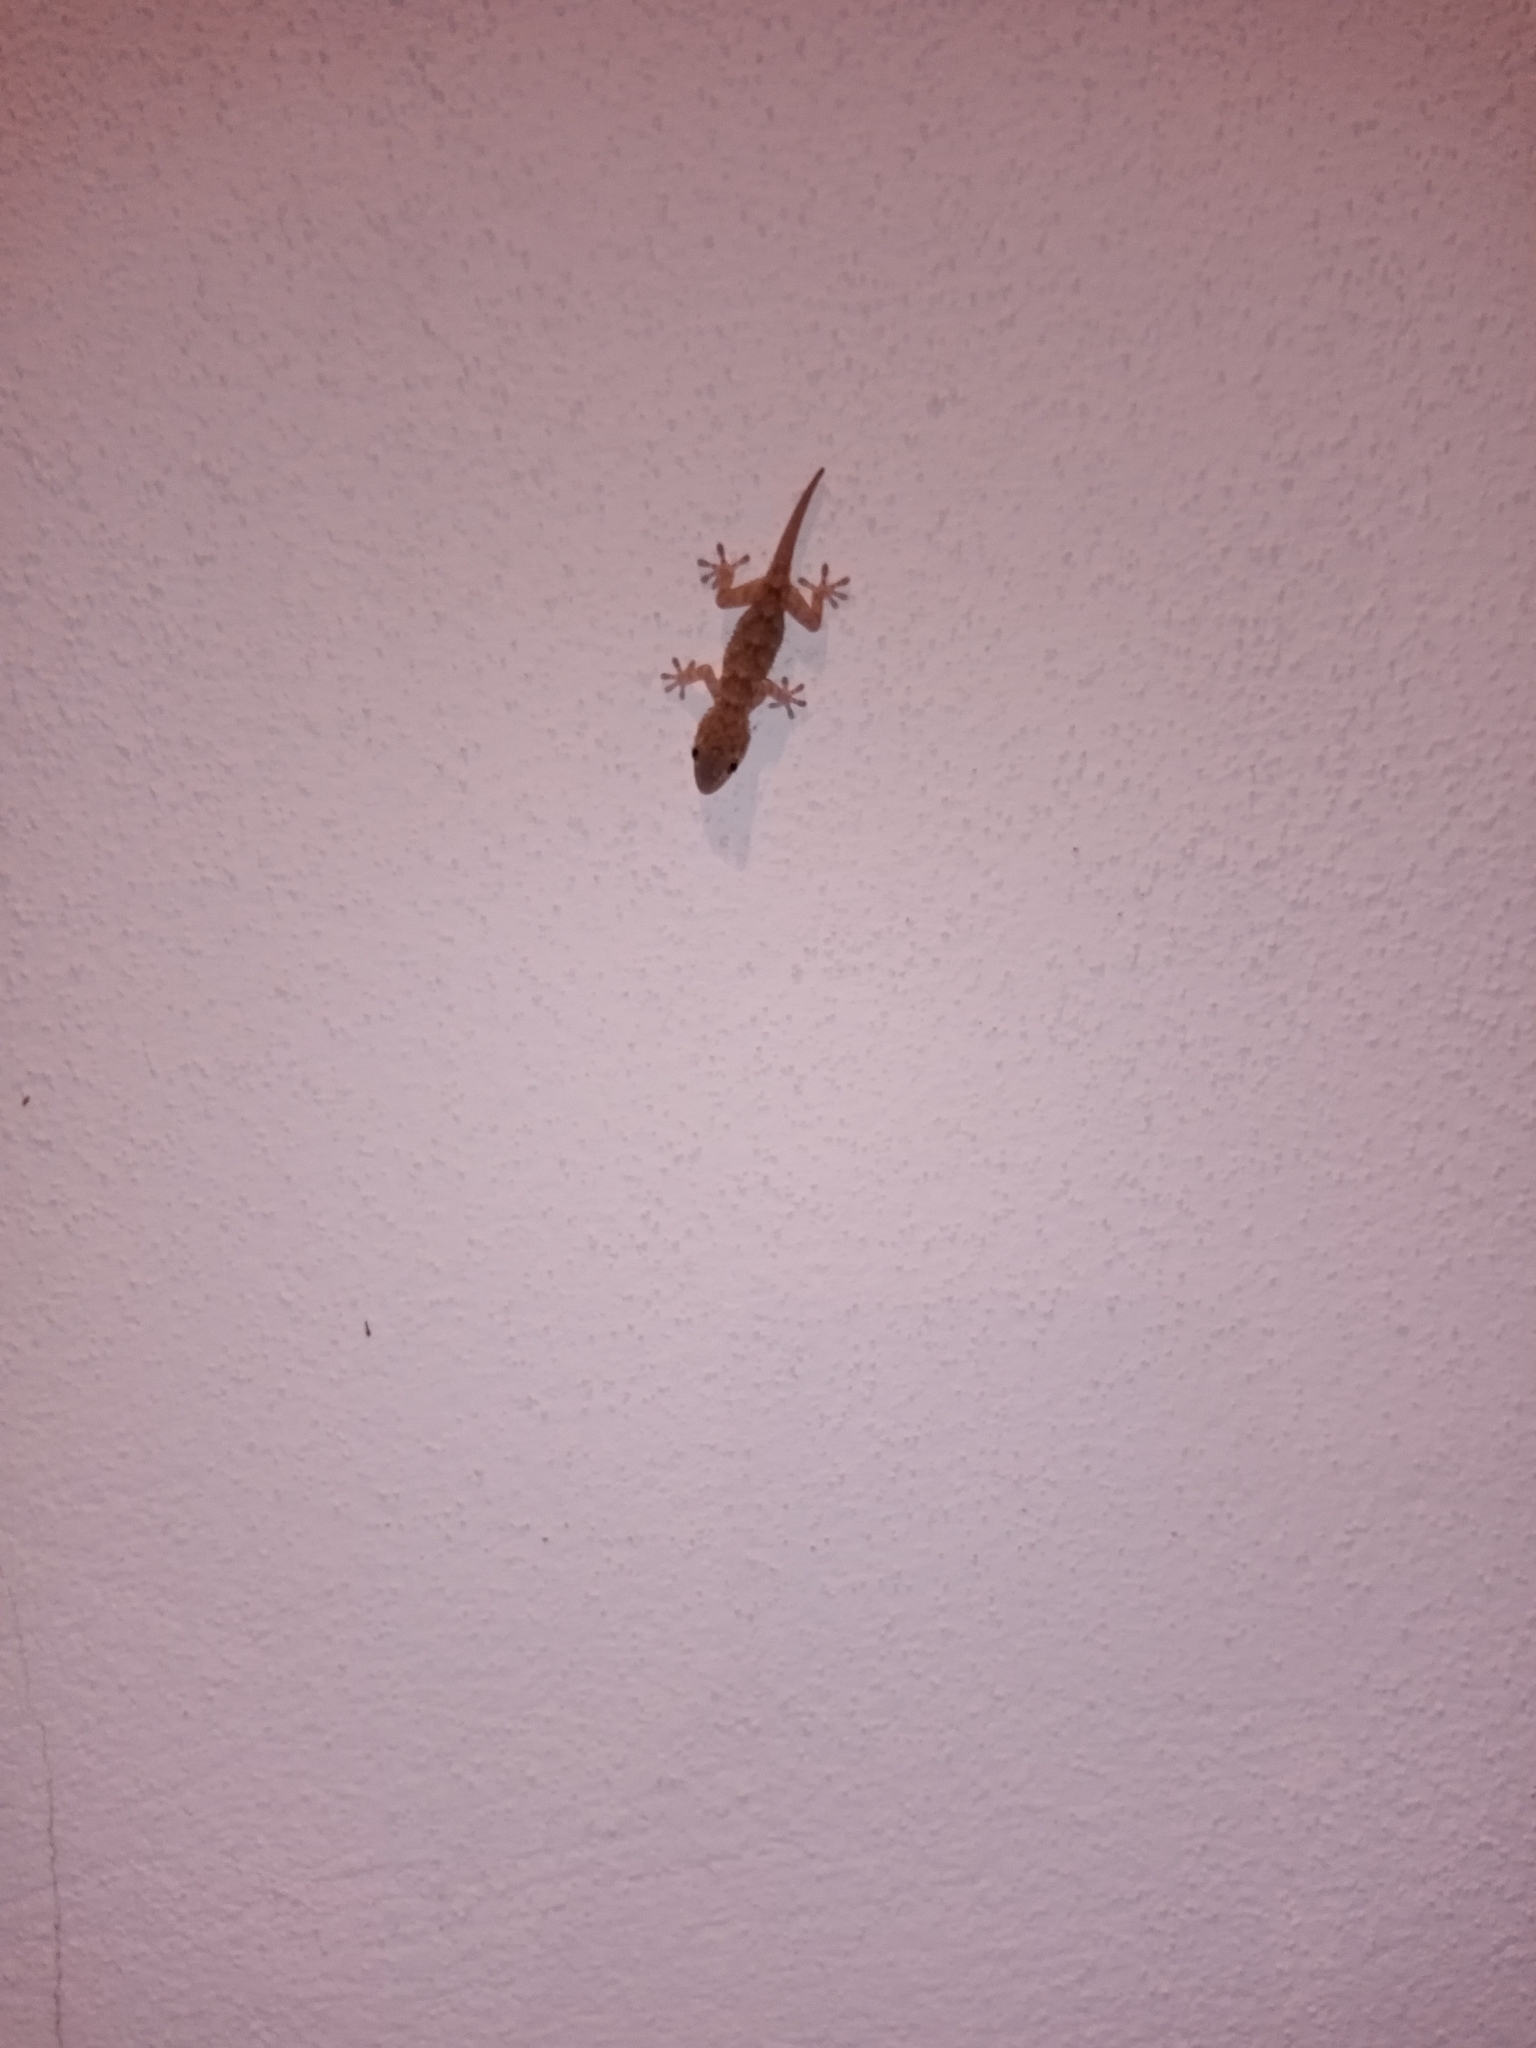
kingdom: Animalia
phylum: Chordata
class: Squamata
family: Phyllodactylidae
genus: Tarentola
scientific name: Tarentola mauritanica
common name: Moorish gecko
